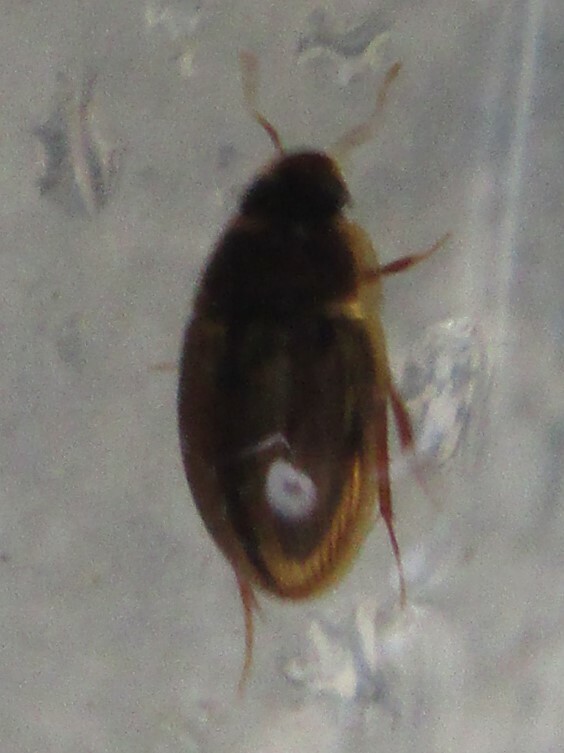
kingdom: Animalia
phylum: Arthropoda
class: Insecta
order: Coleoptera
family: Hydrophilidae
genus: Enochrus
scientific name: Enochrus
